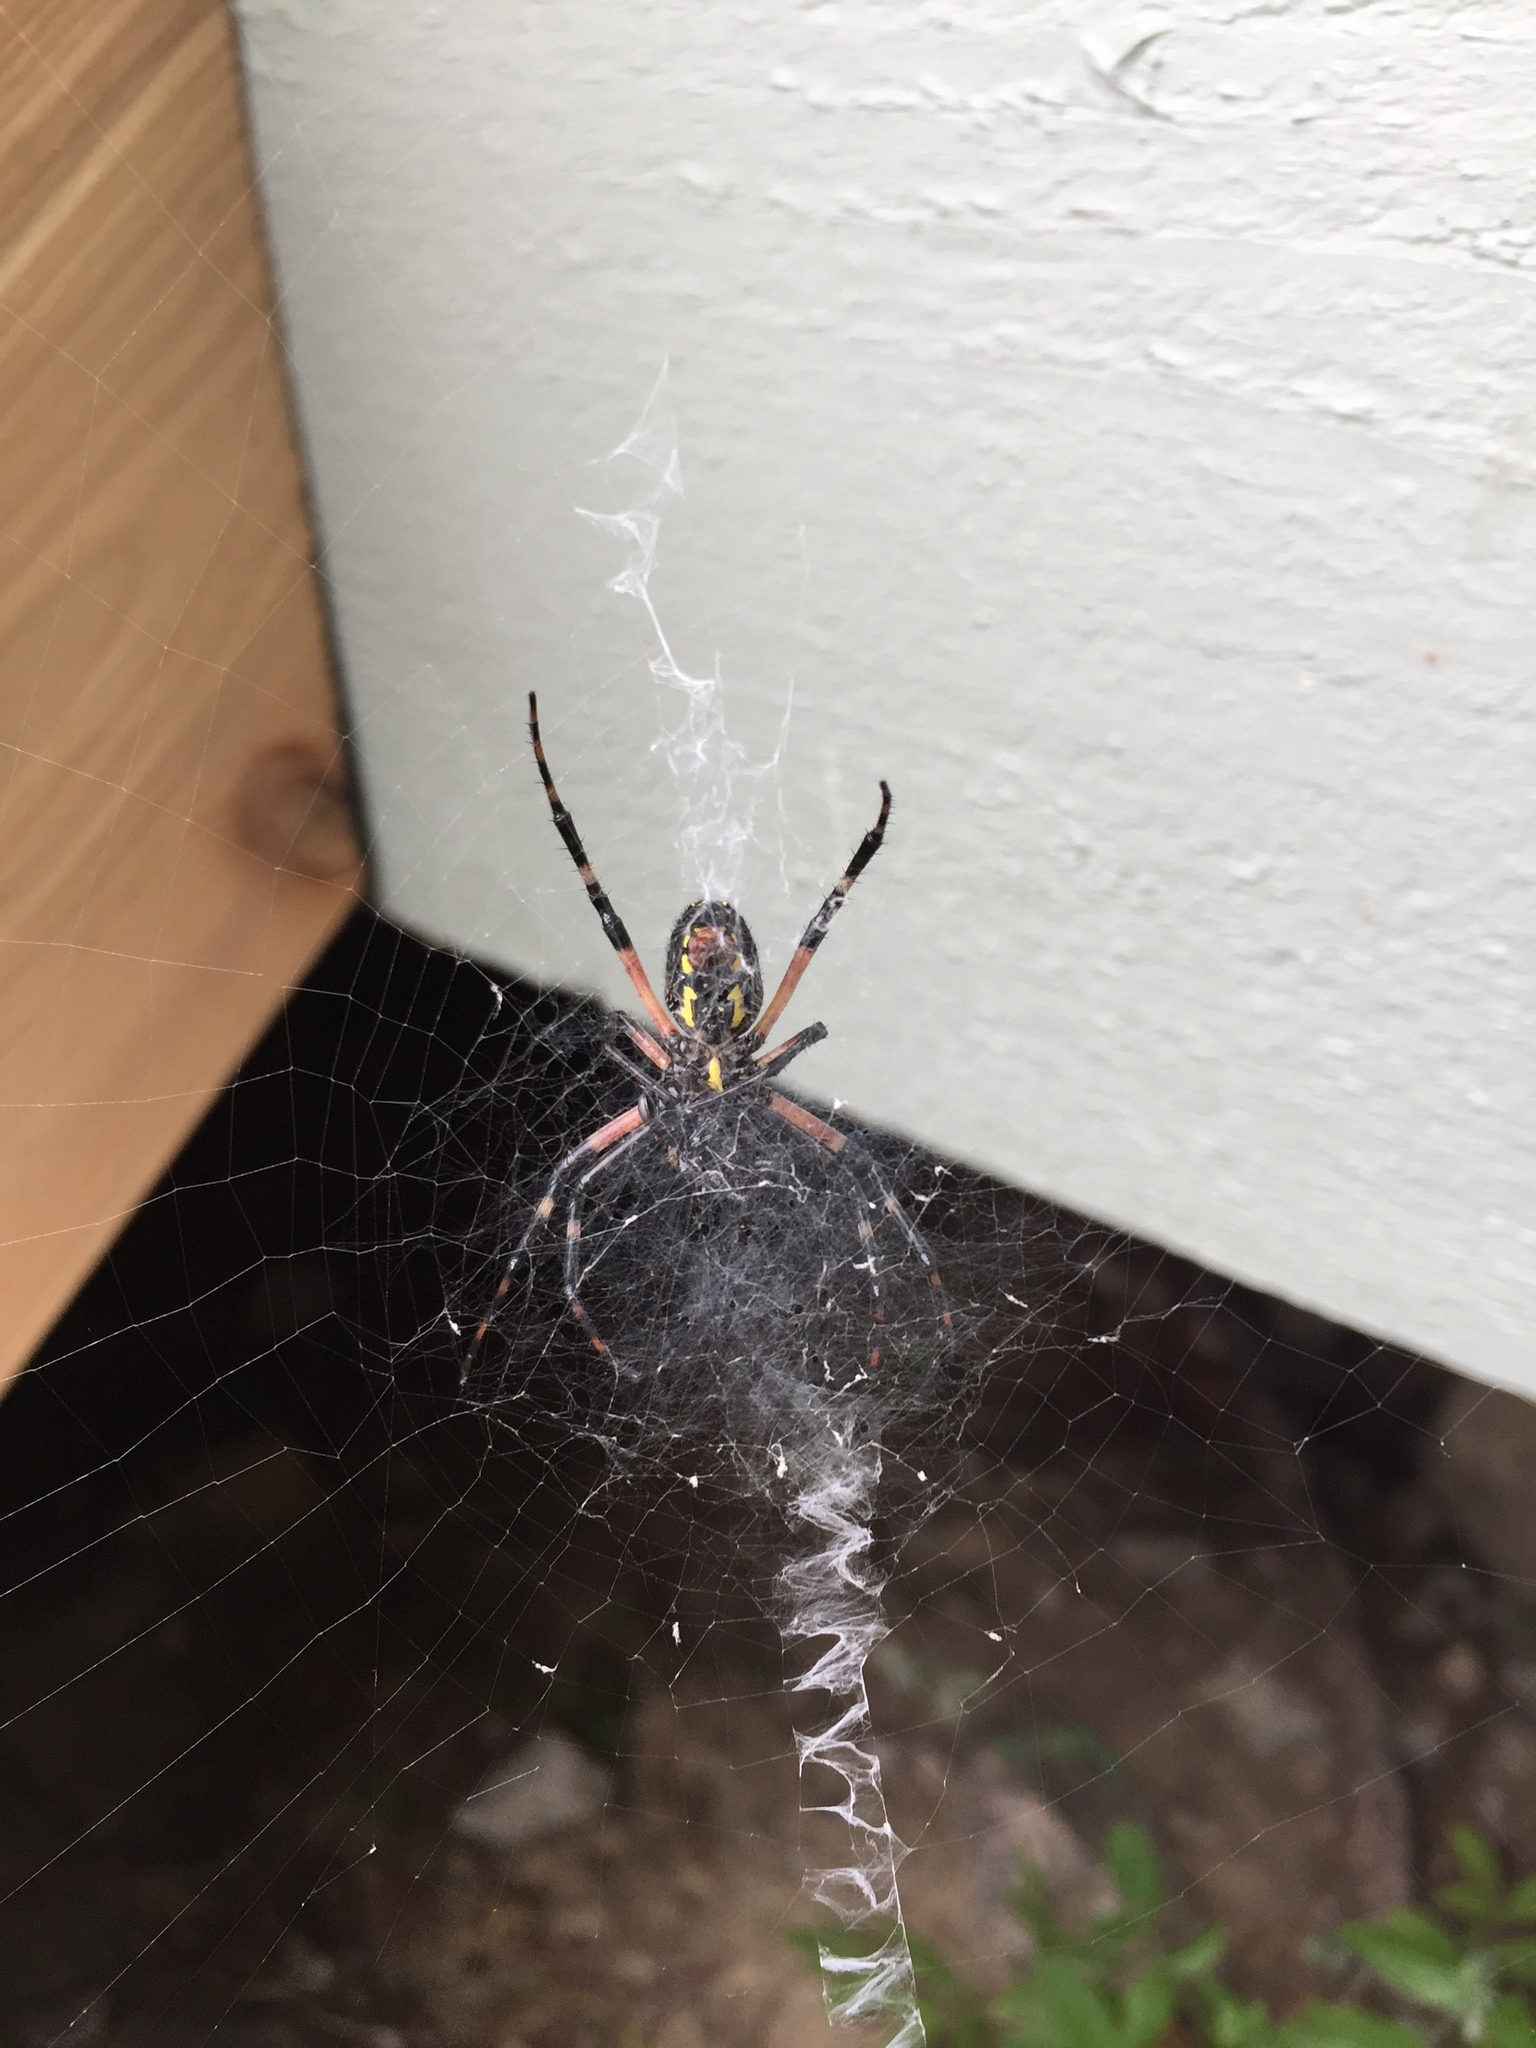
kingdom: Animalia
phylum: Arthropoda
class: Arachnida
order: Araneae
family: Araneidae
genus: Argiope
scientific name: Argiope aurantia
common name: Orb weavers
